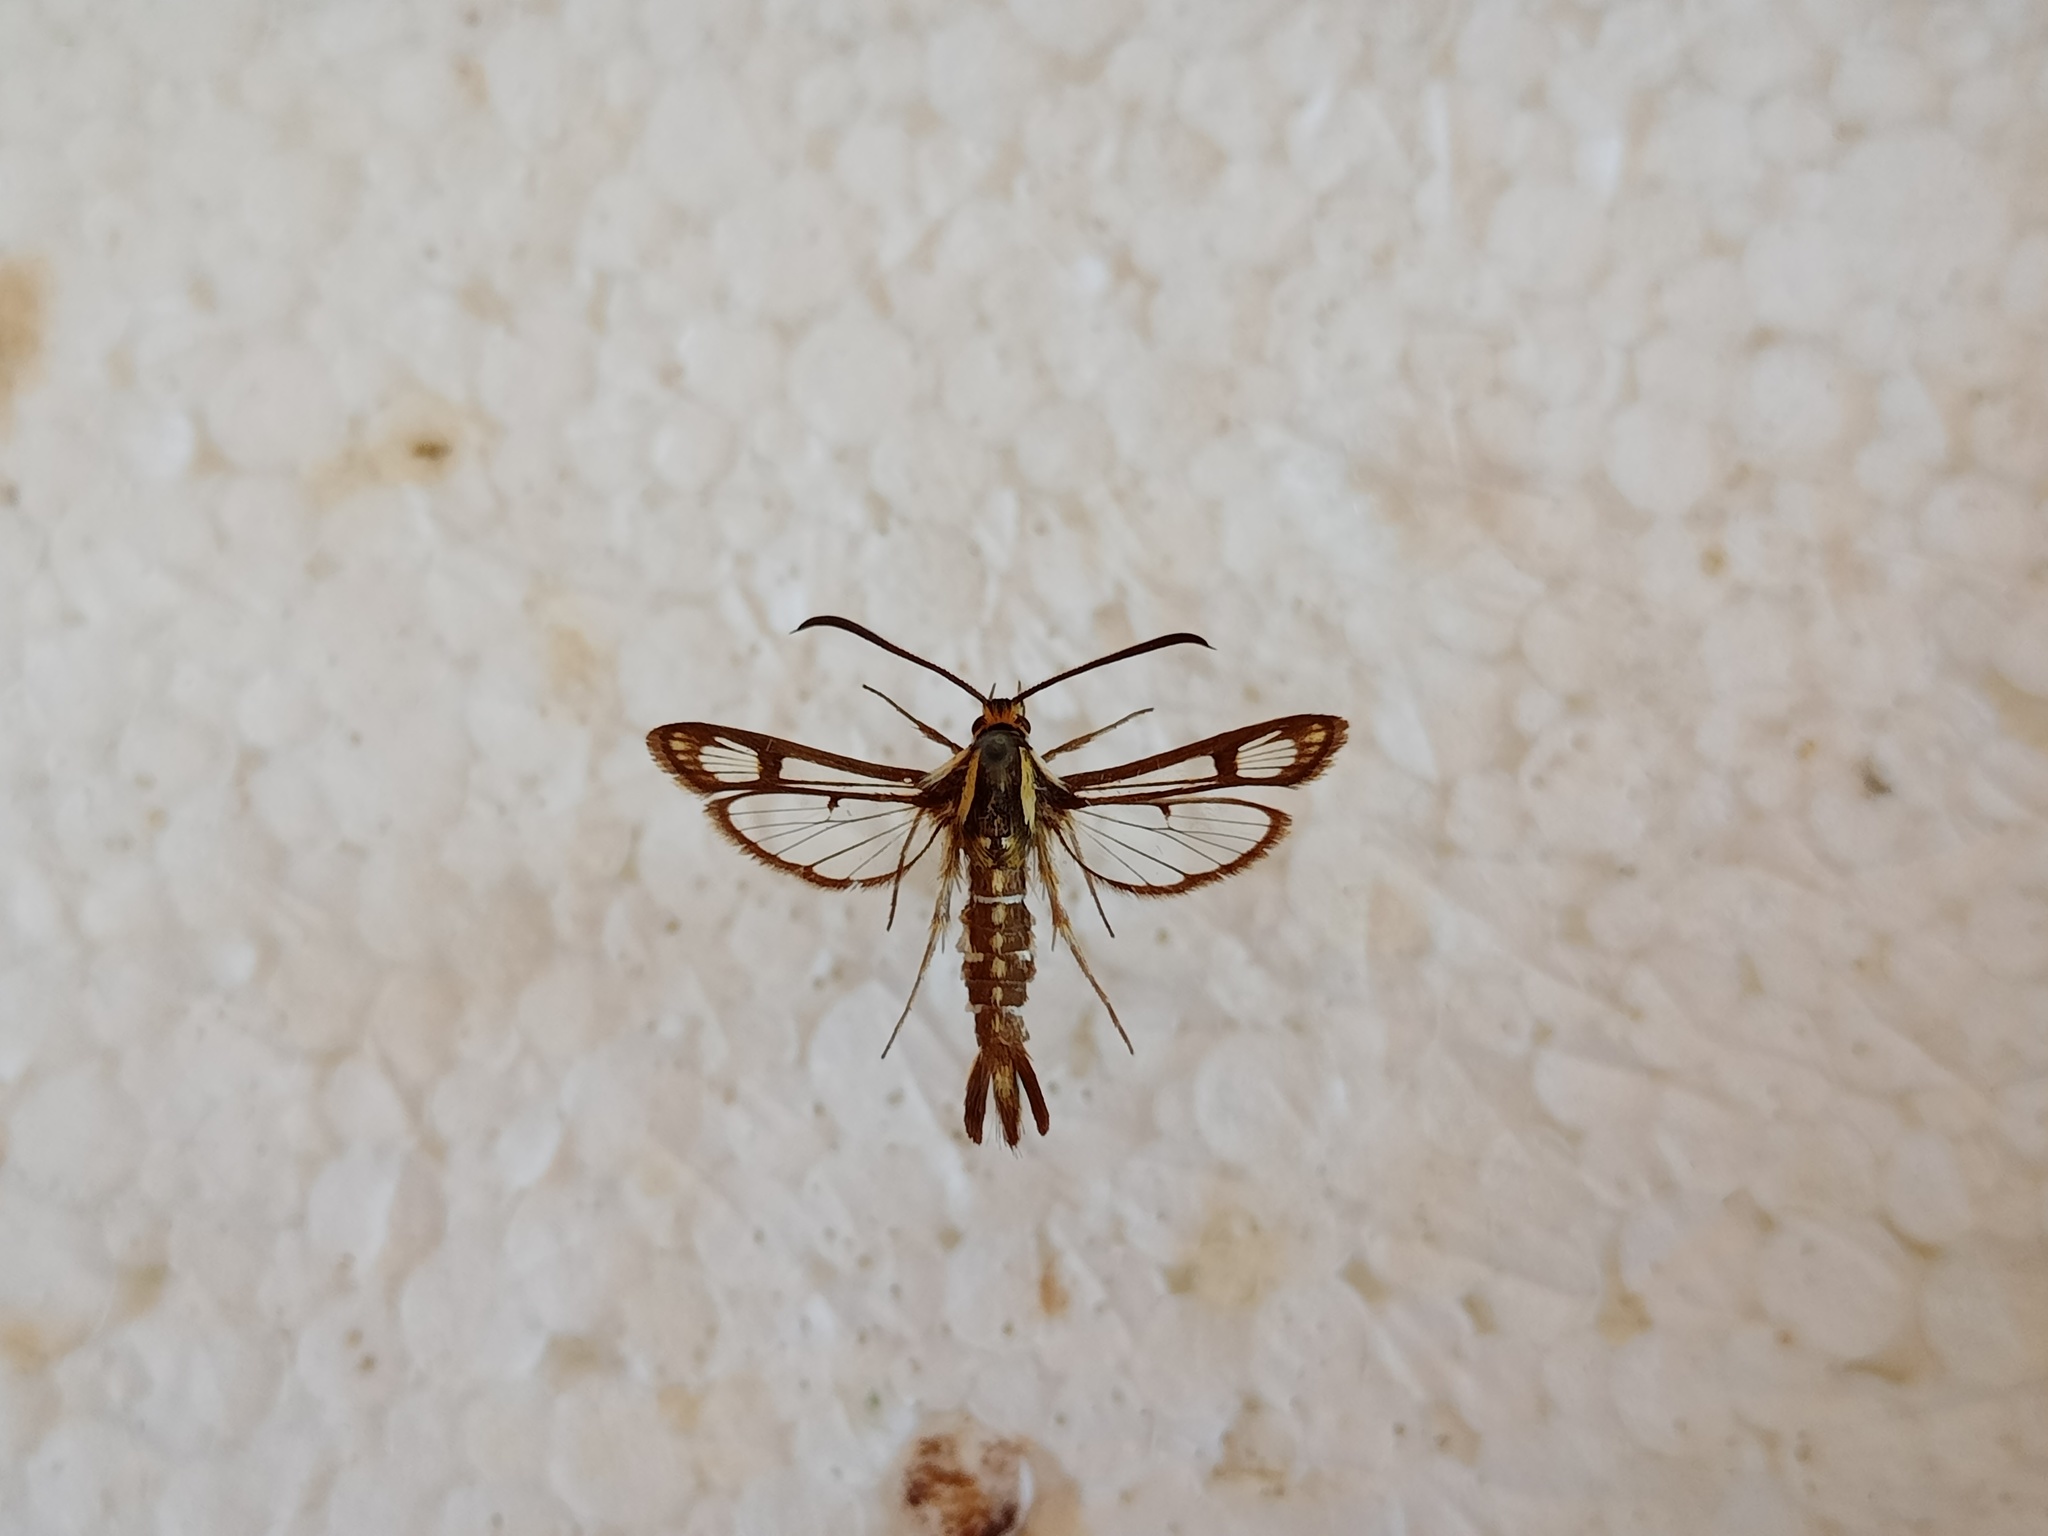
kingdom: Animalia
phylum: Arthropoda
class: Insecta
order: Lepidoptera
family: Sesiidae
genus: Pyropteron
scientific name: Pyropteron triannuliformis
